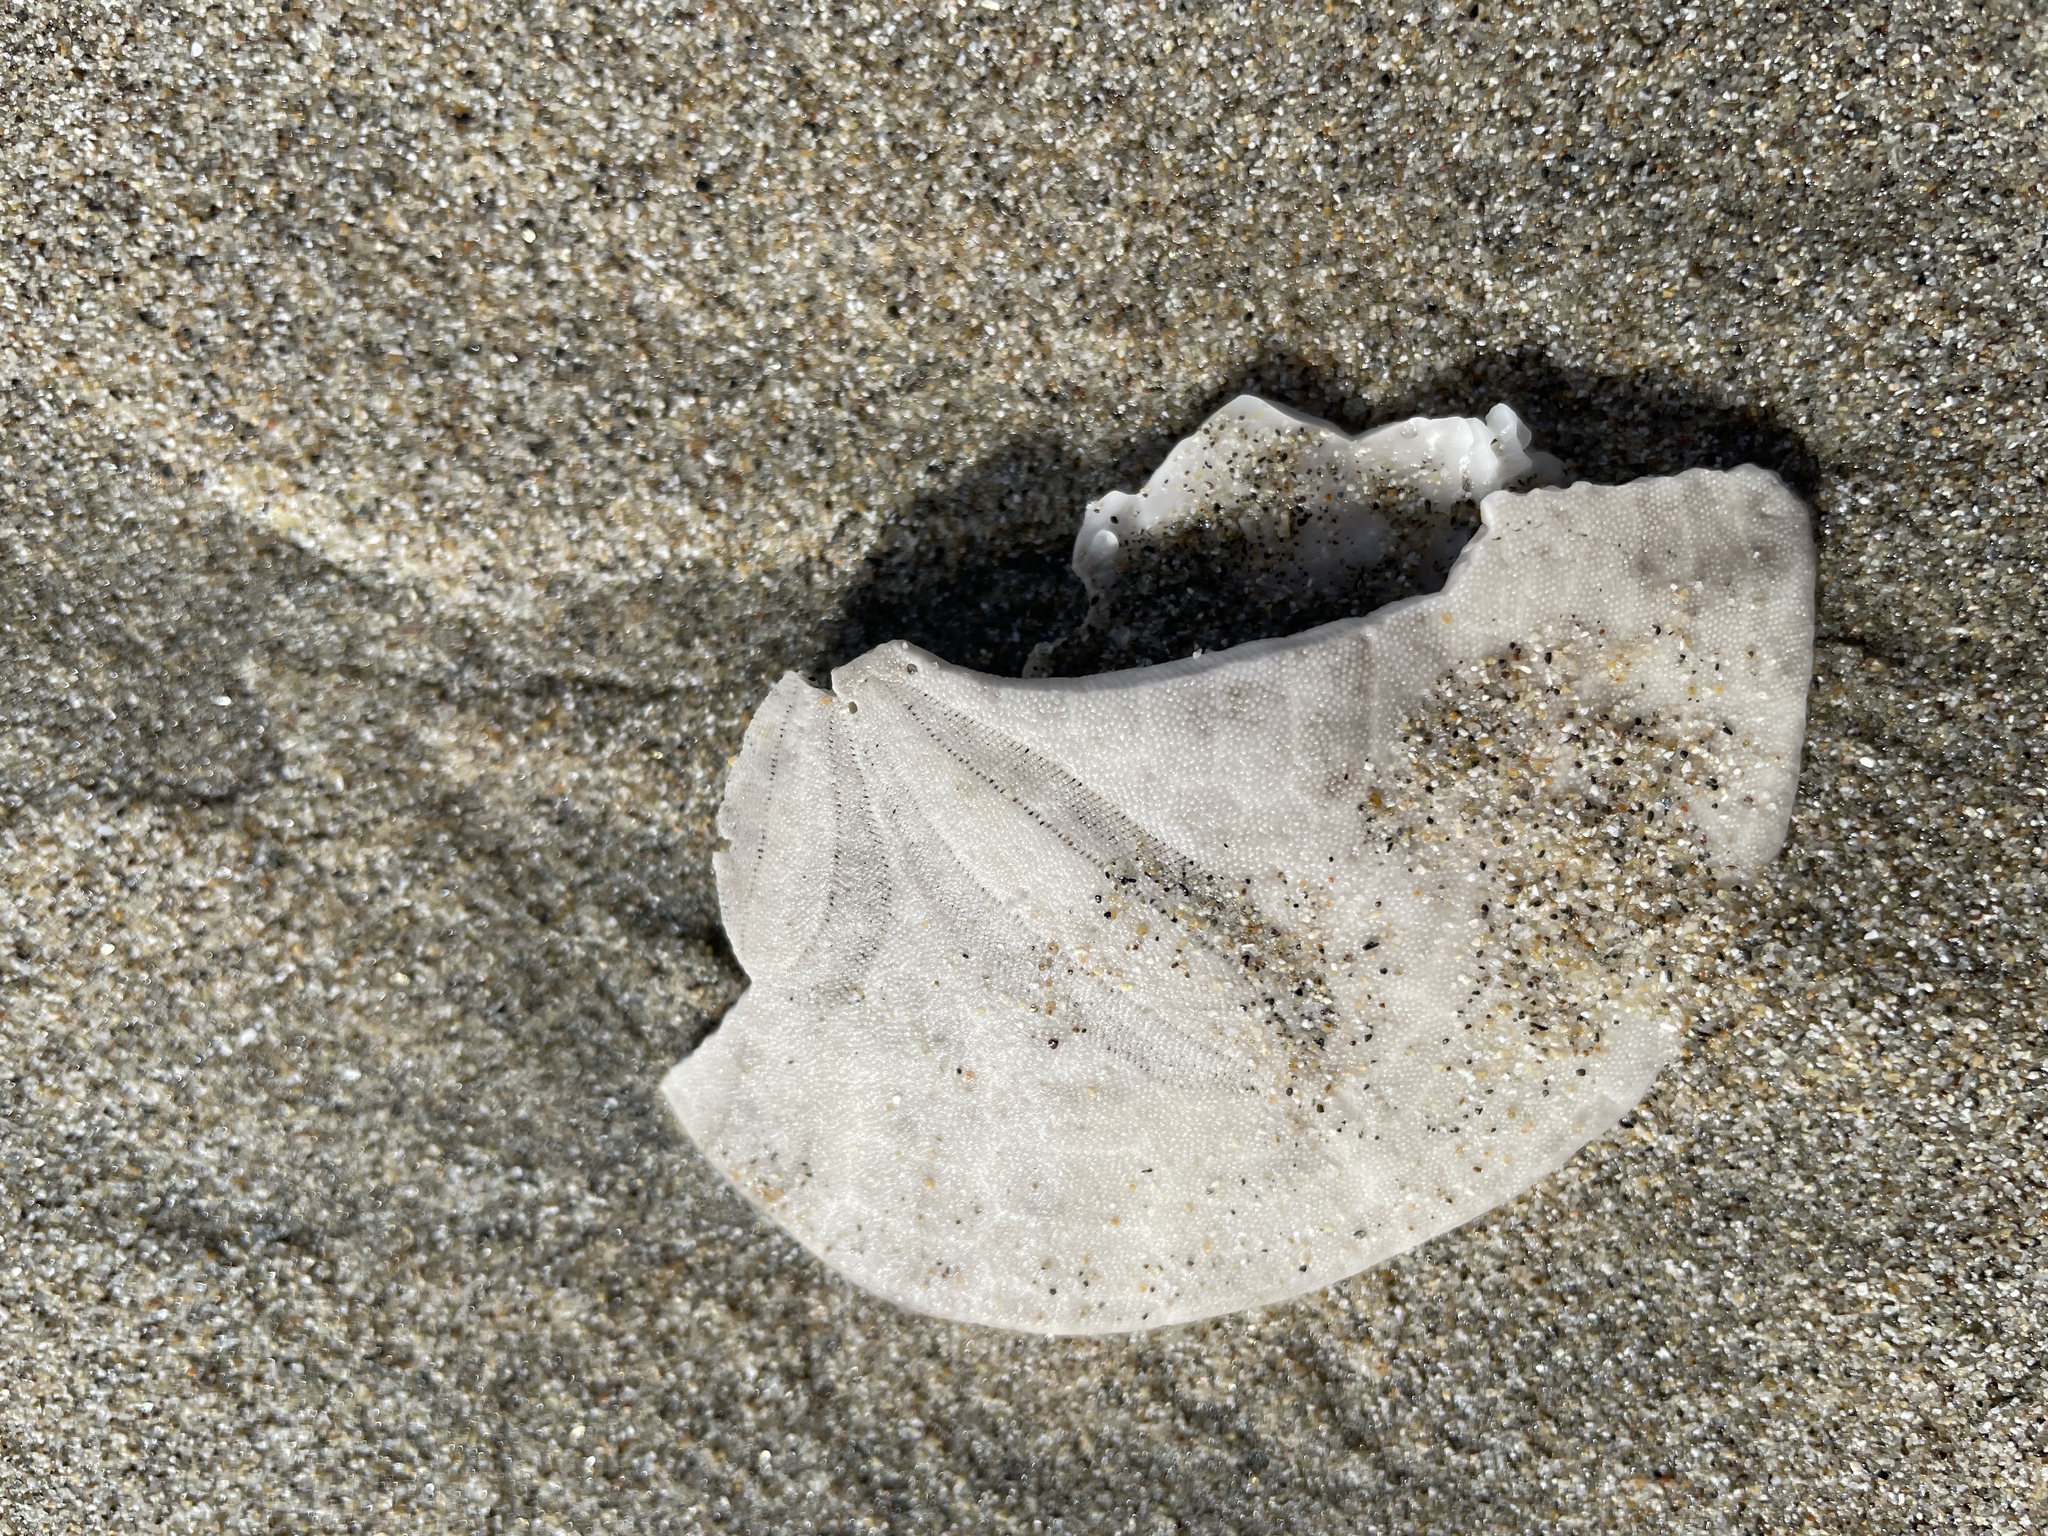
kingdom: Animalia
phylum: Echinodermata
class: Echinoidea
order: Echinolampadacea
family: Dendrasteridae
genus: Dendraster
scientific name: Dendraster excentricus
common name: Eccentric sand dollar sea urchin
